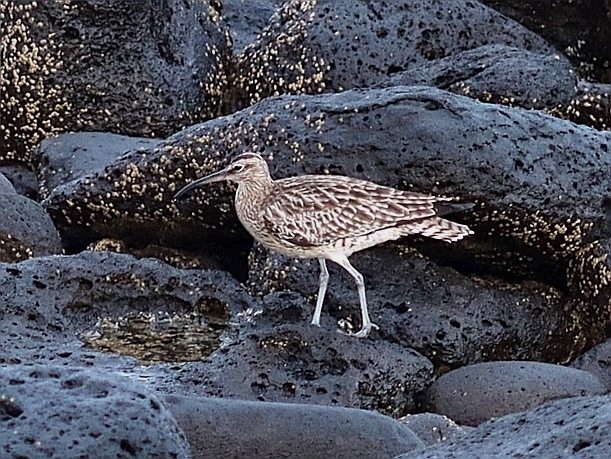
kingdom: Animalia
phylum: Chordata
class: Aves
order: Charadriiformes
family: Scolopacidae
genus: Numenius
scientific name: Numenius phaeopus
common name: Whimbrel
